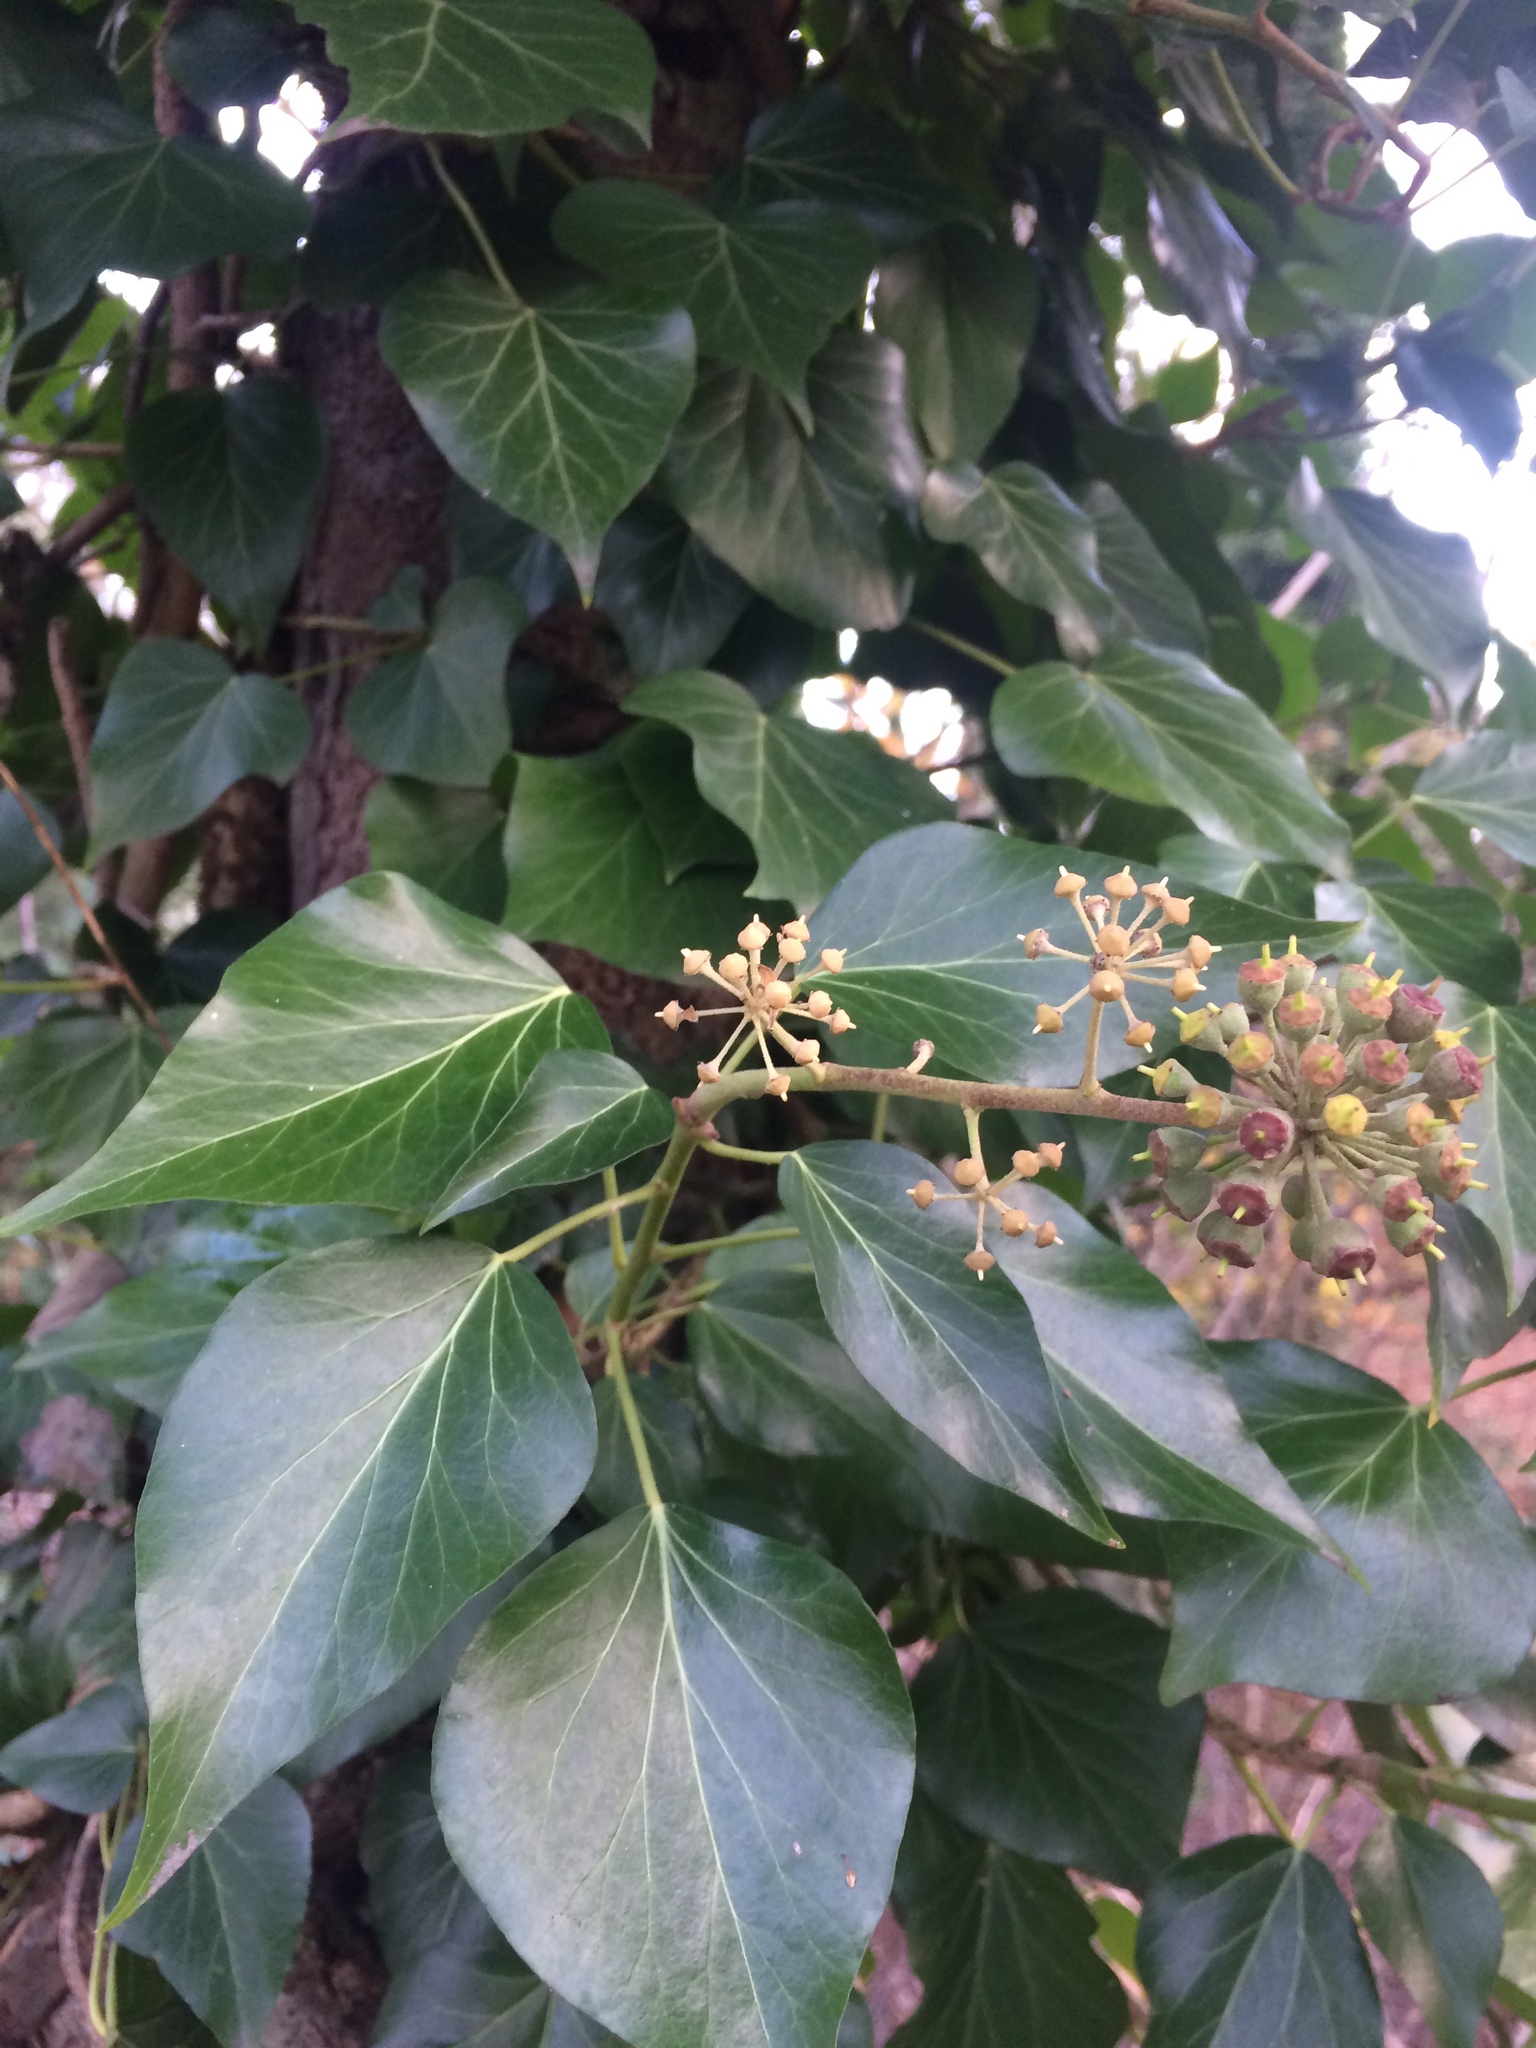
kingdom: Plantae
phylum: Tracheophyta
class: Magnoliopsida
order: Apiales
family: Araliaceae
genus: Hedera
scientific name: Hedera helix
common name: Ivy
